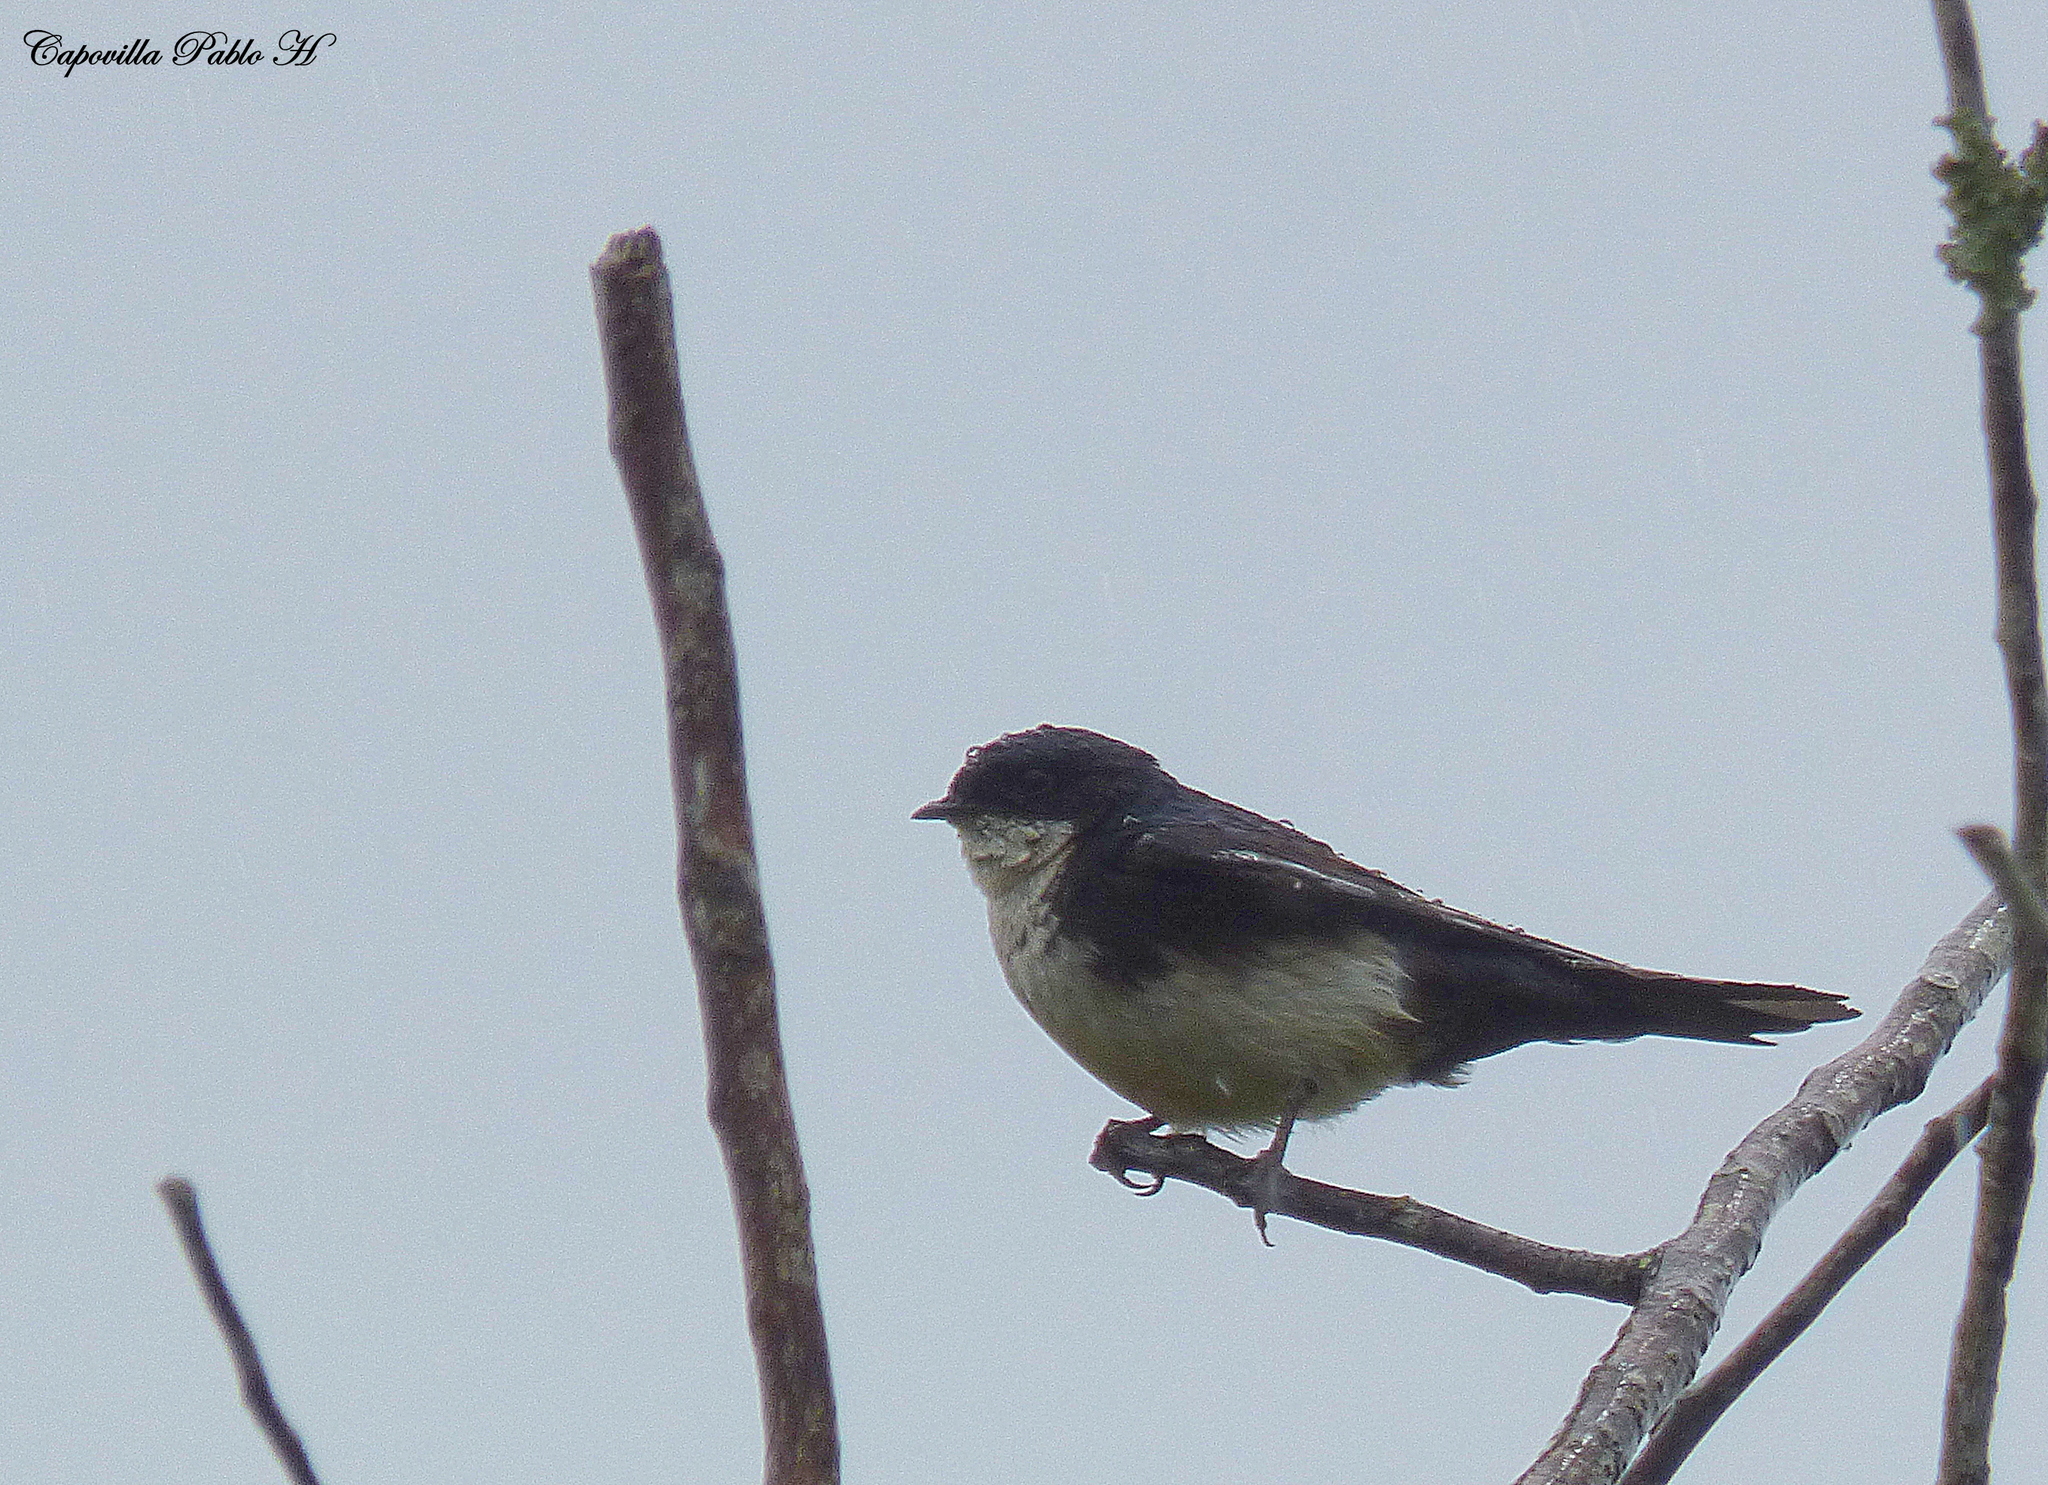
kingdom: Animalia
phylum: Chordata
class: Aves
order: Passeriformes
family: Hirundinidae
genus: Notiochelidon
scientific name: Notiochelidon cyanoleuca
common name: Blue-and-white swallow
